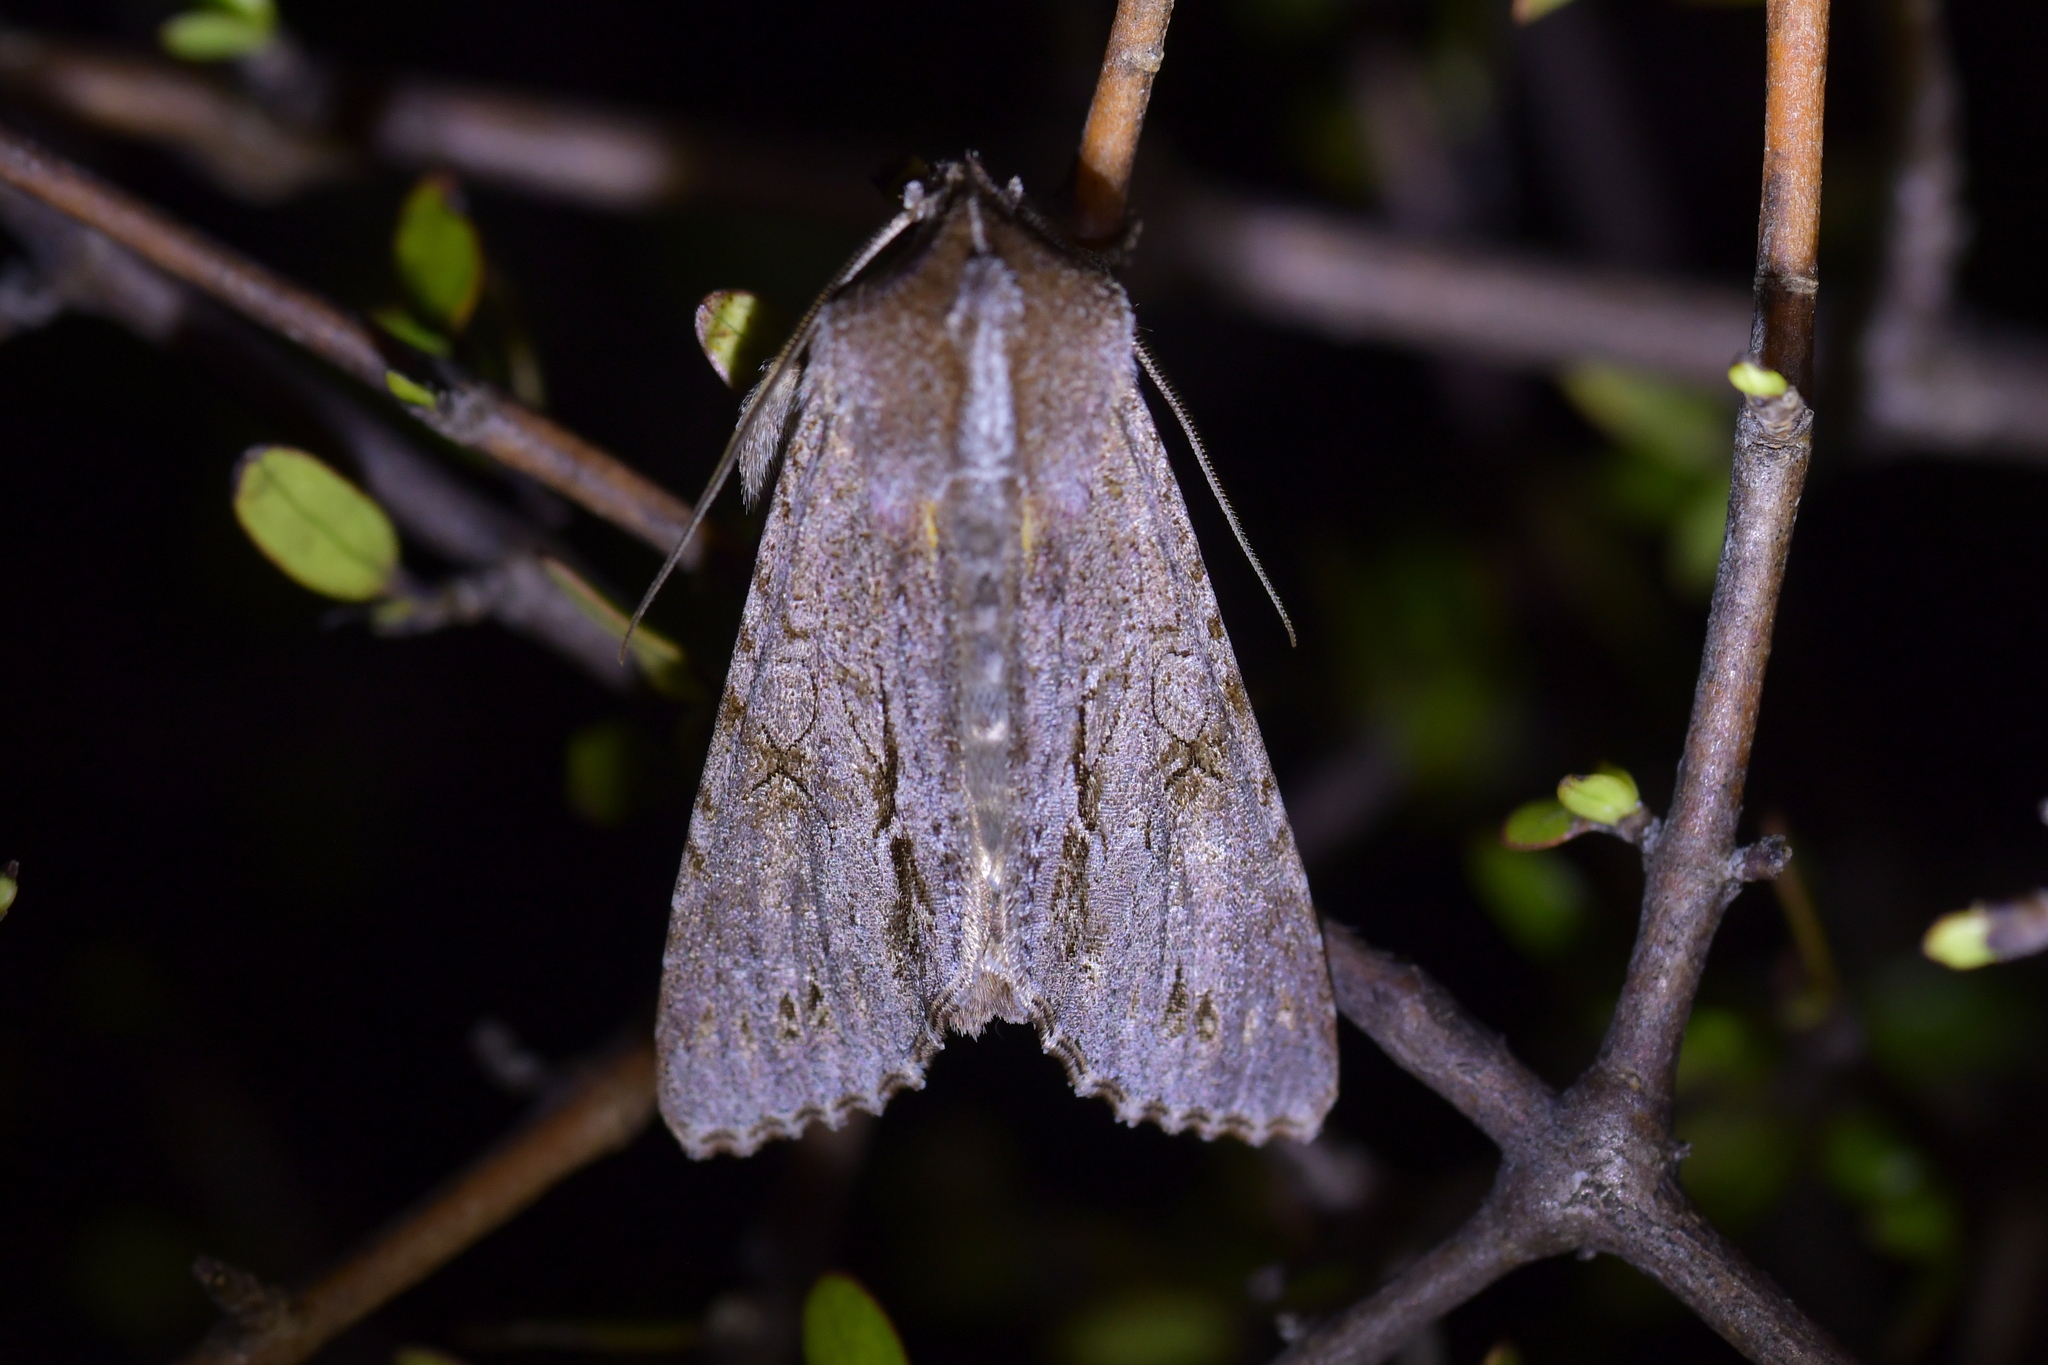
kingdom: Animalia
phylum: Arthropoda
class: Insecta
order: Lepidoptera
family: Noctuidae
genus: Ichneutica
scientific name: Ichneutica
